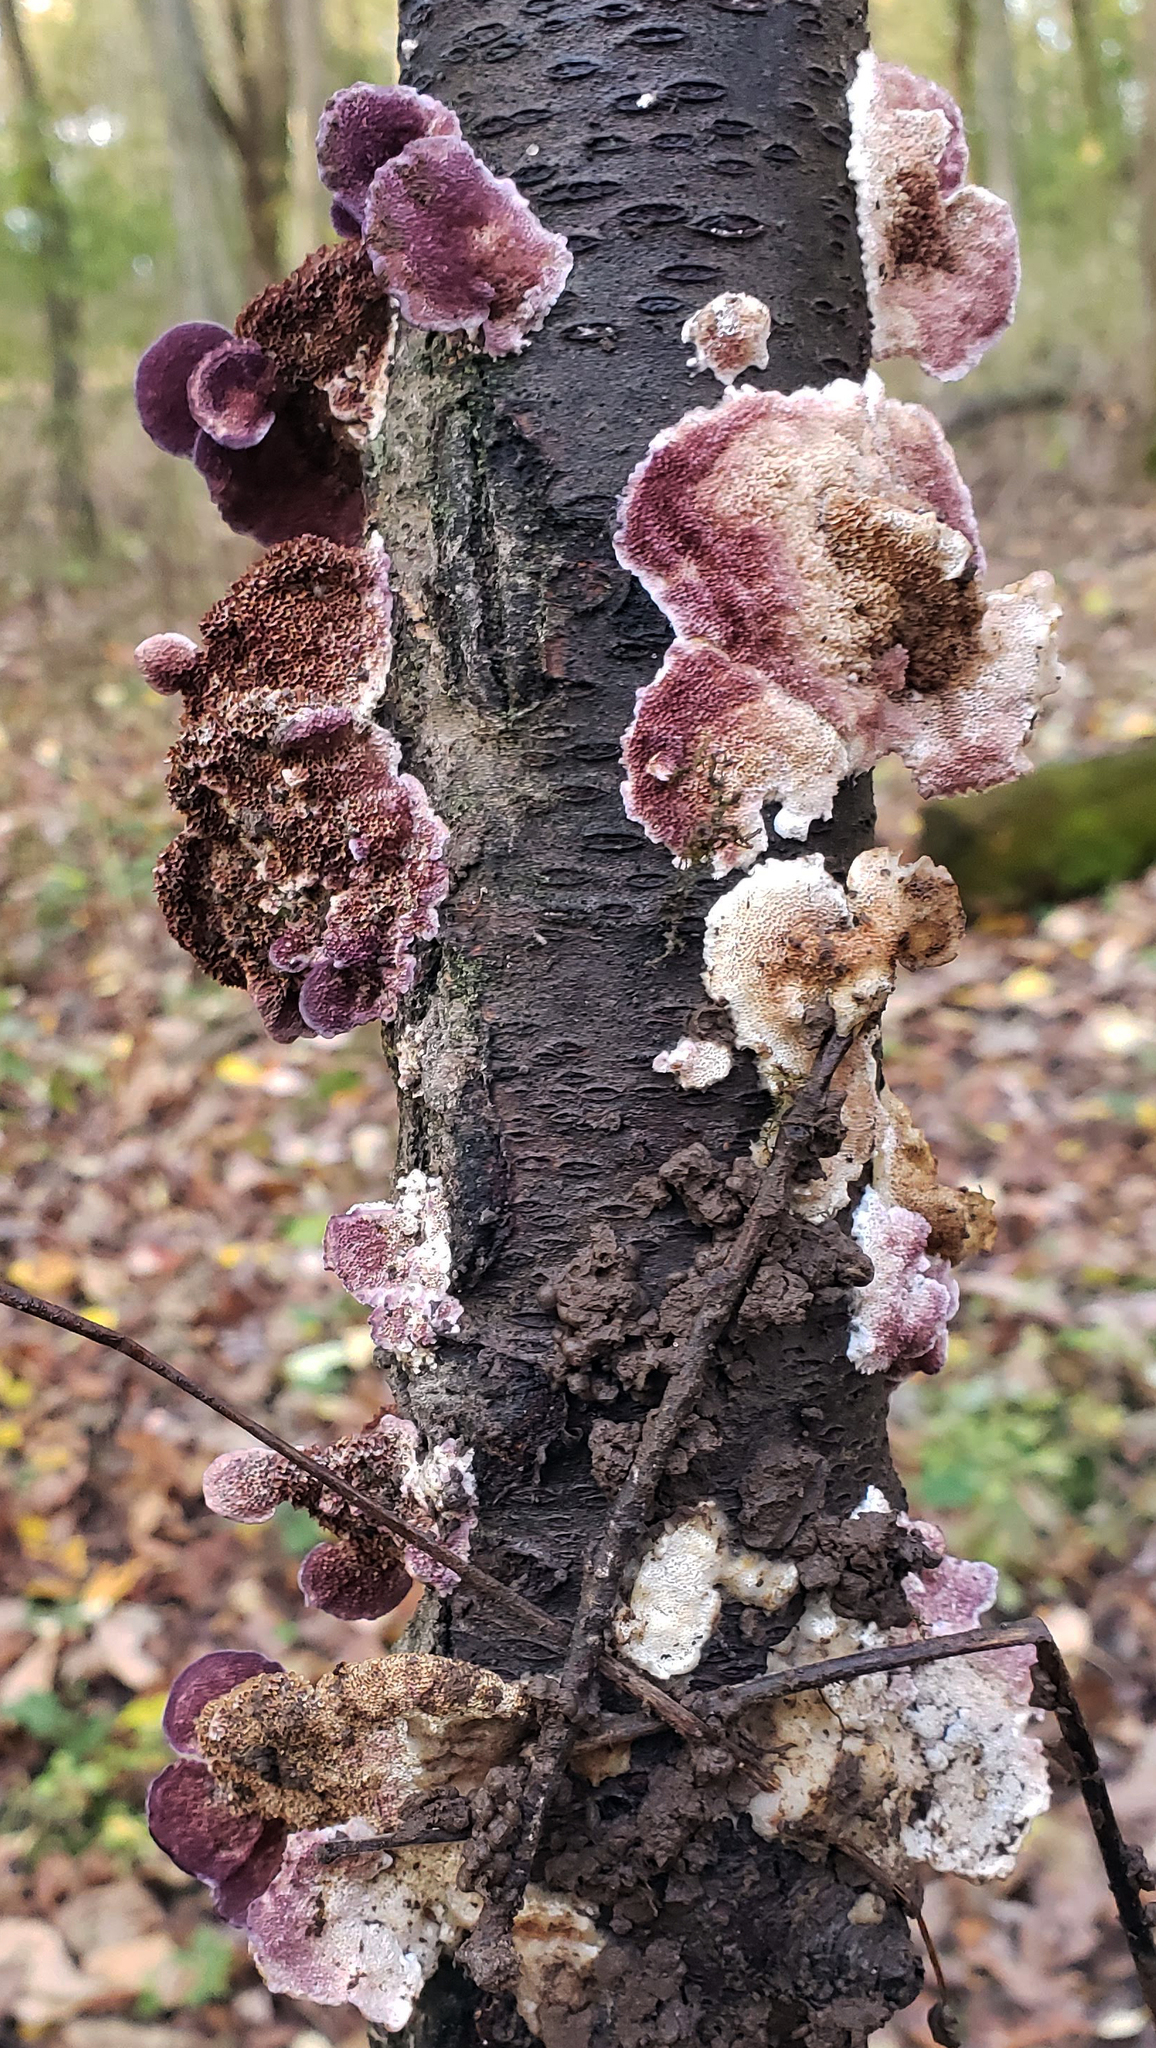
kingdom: Fungi
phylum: Basidiomycota
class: Agaricomycetes
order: Hymenochaetales
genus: Trichaptum
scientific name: Trichaptum biforme
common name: Violet-toothed polypore
